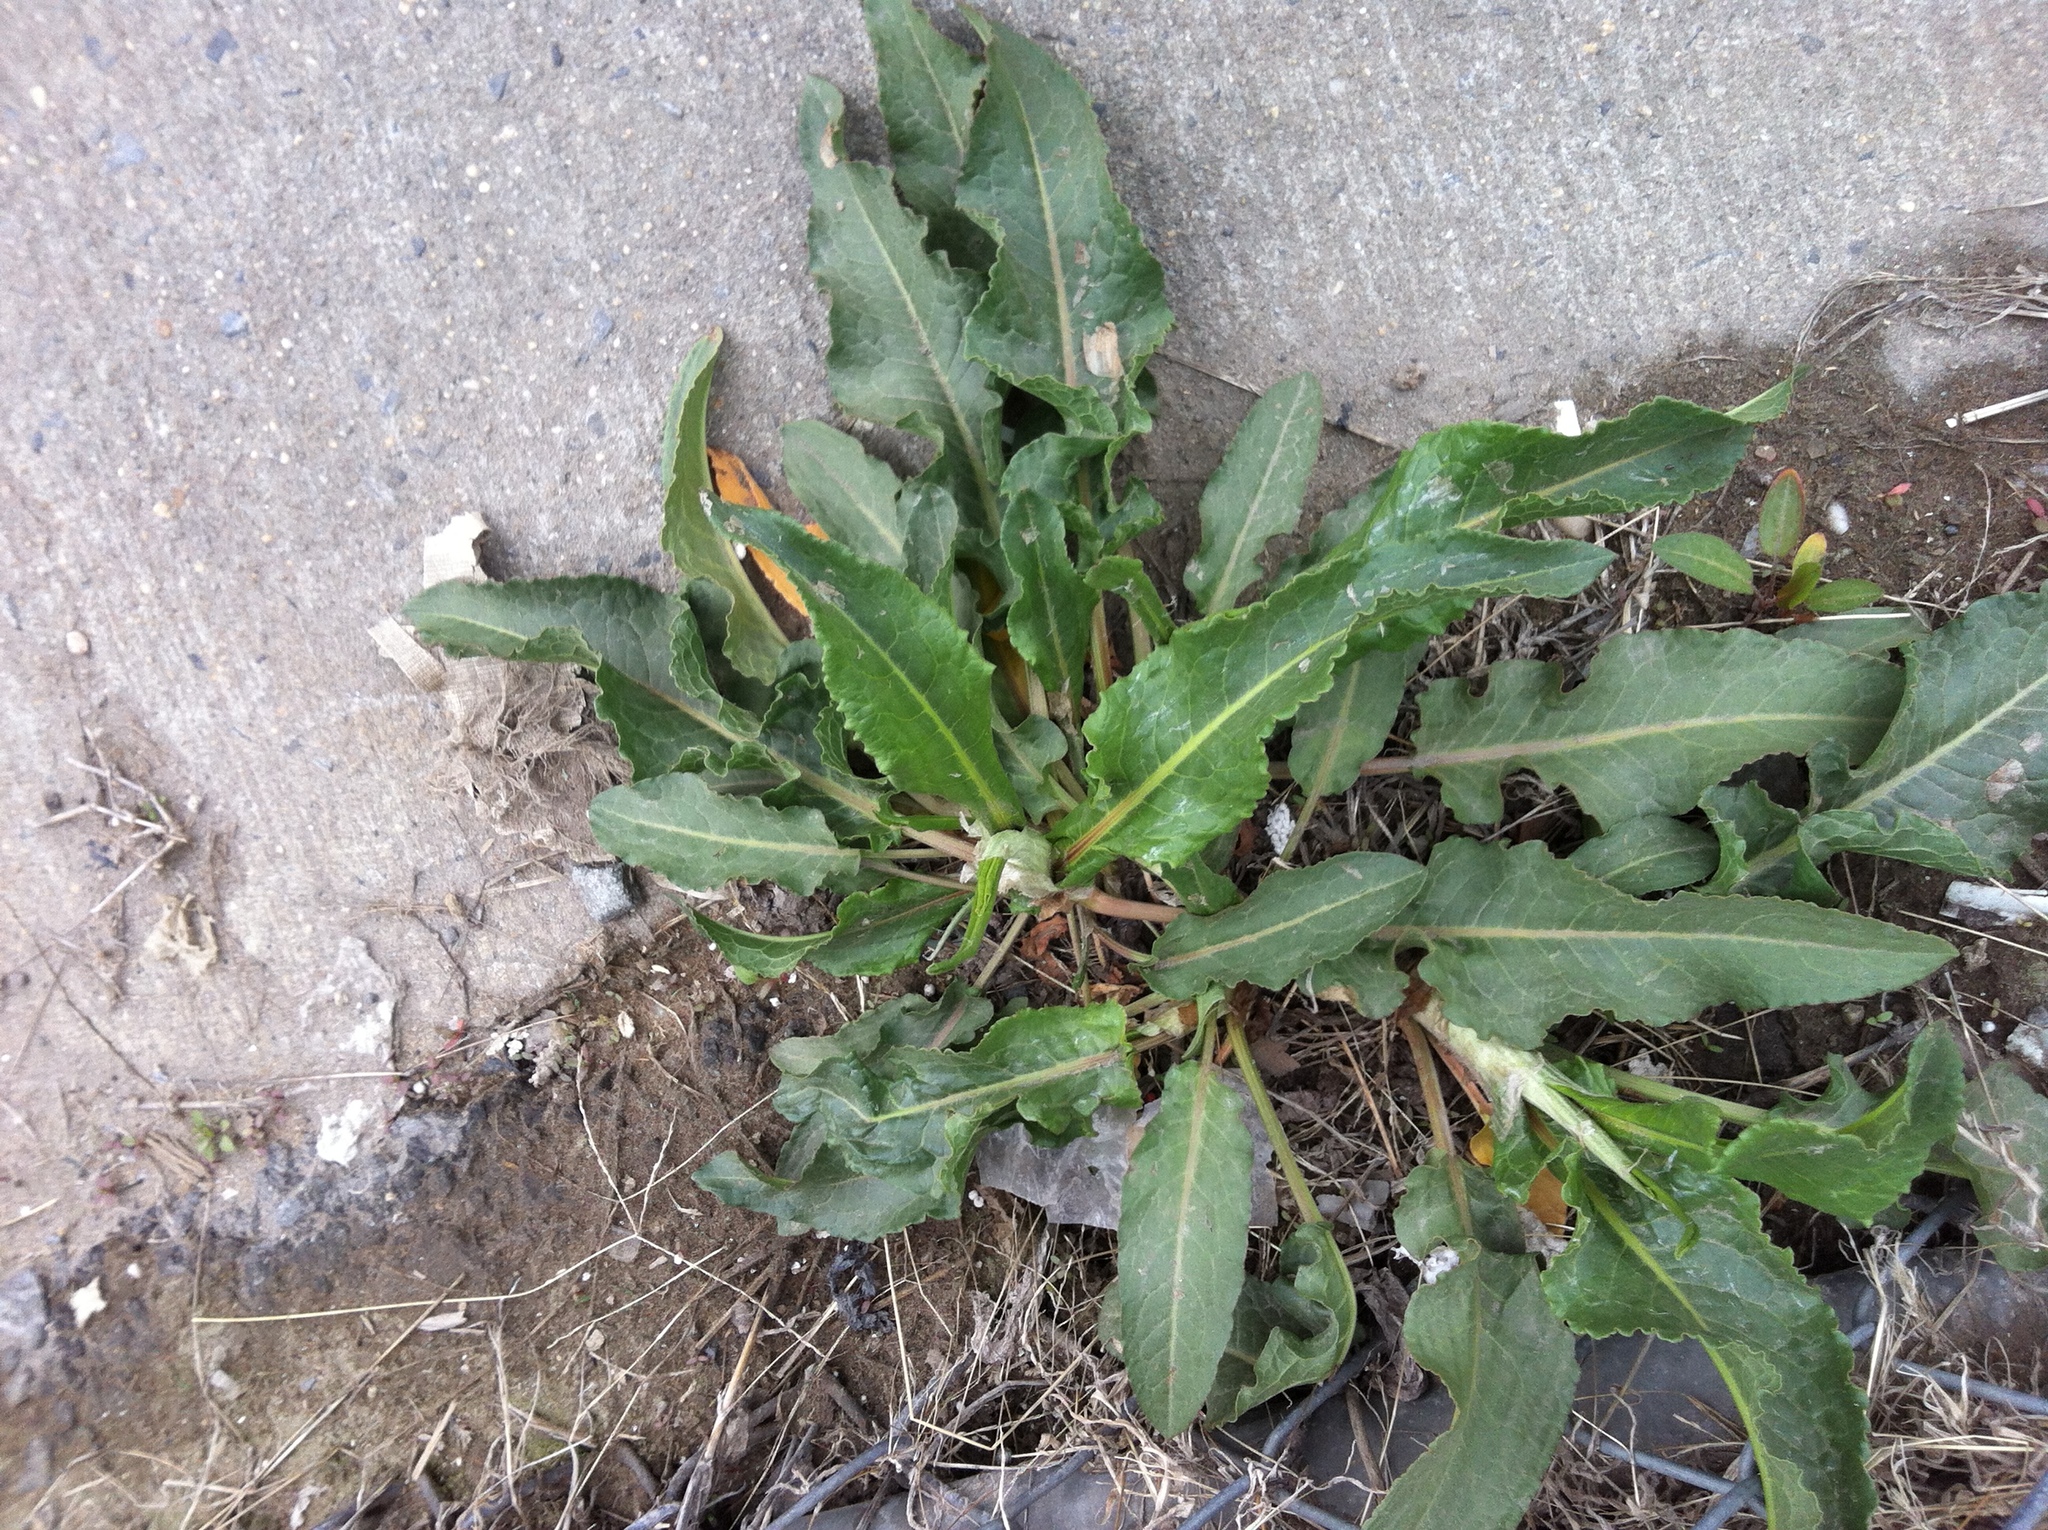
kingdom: Plantae
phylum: Tracheophyta
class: Magnoliopsida
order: Caryophyllales
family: Polygonaceae
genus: Rumex
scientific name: Rumex crispus
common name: Curled dock
